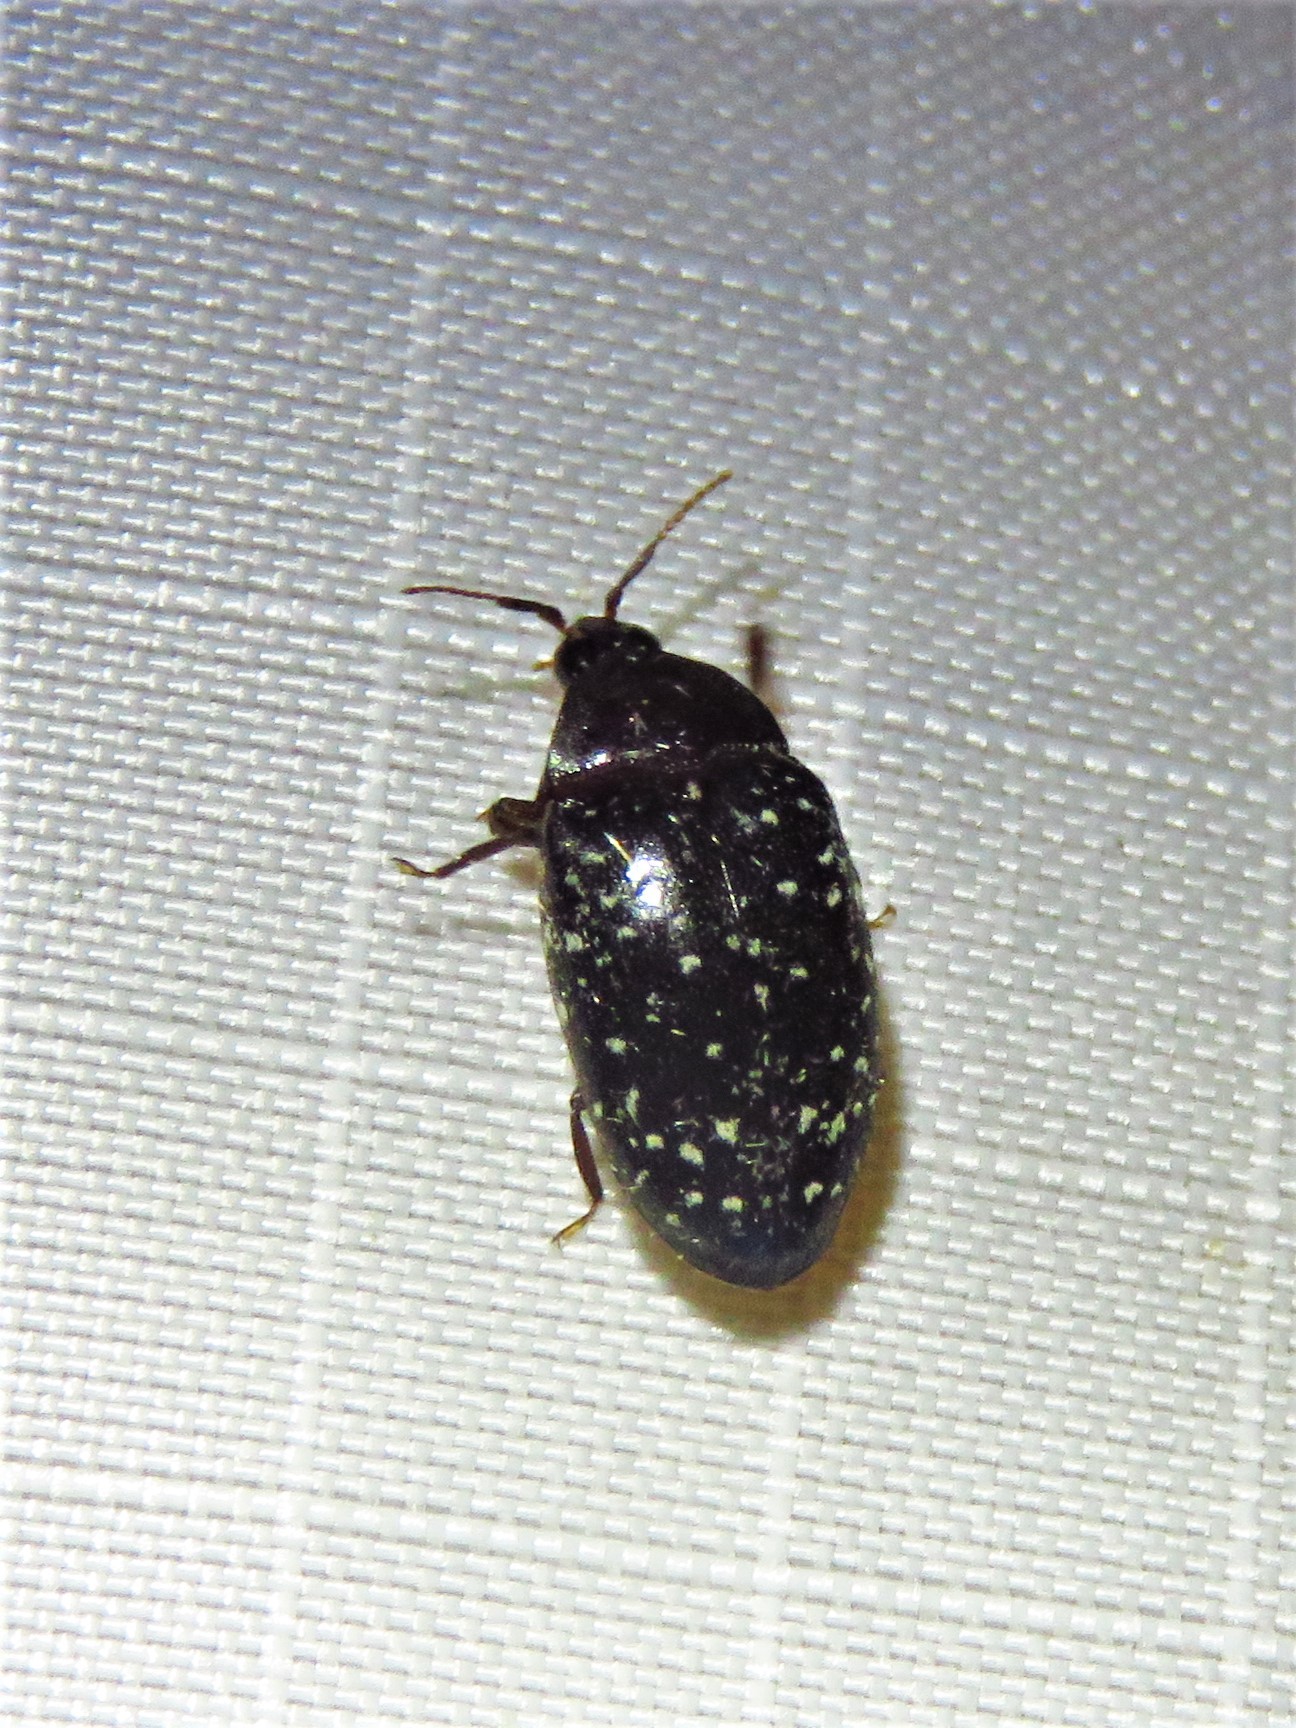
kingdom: Animalia
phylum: Arthropoda
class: Insecta
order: Coleoptera
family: Chelonariidae
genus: Chelonarium
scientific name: Chelonarium lecontei
